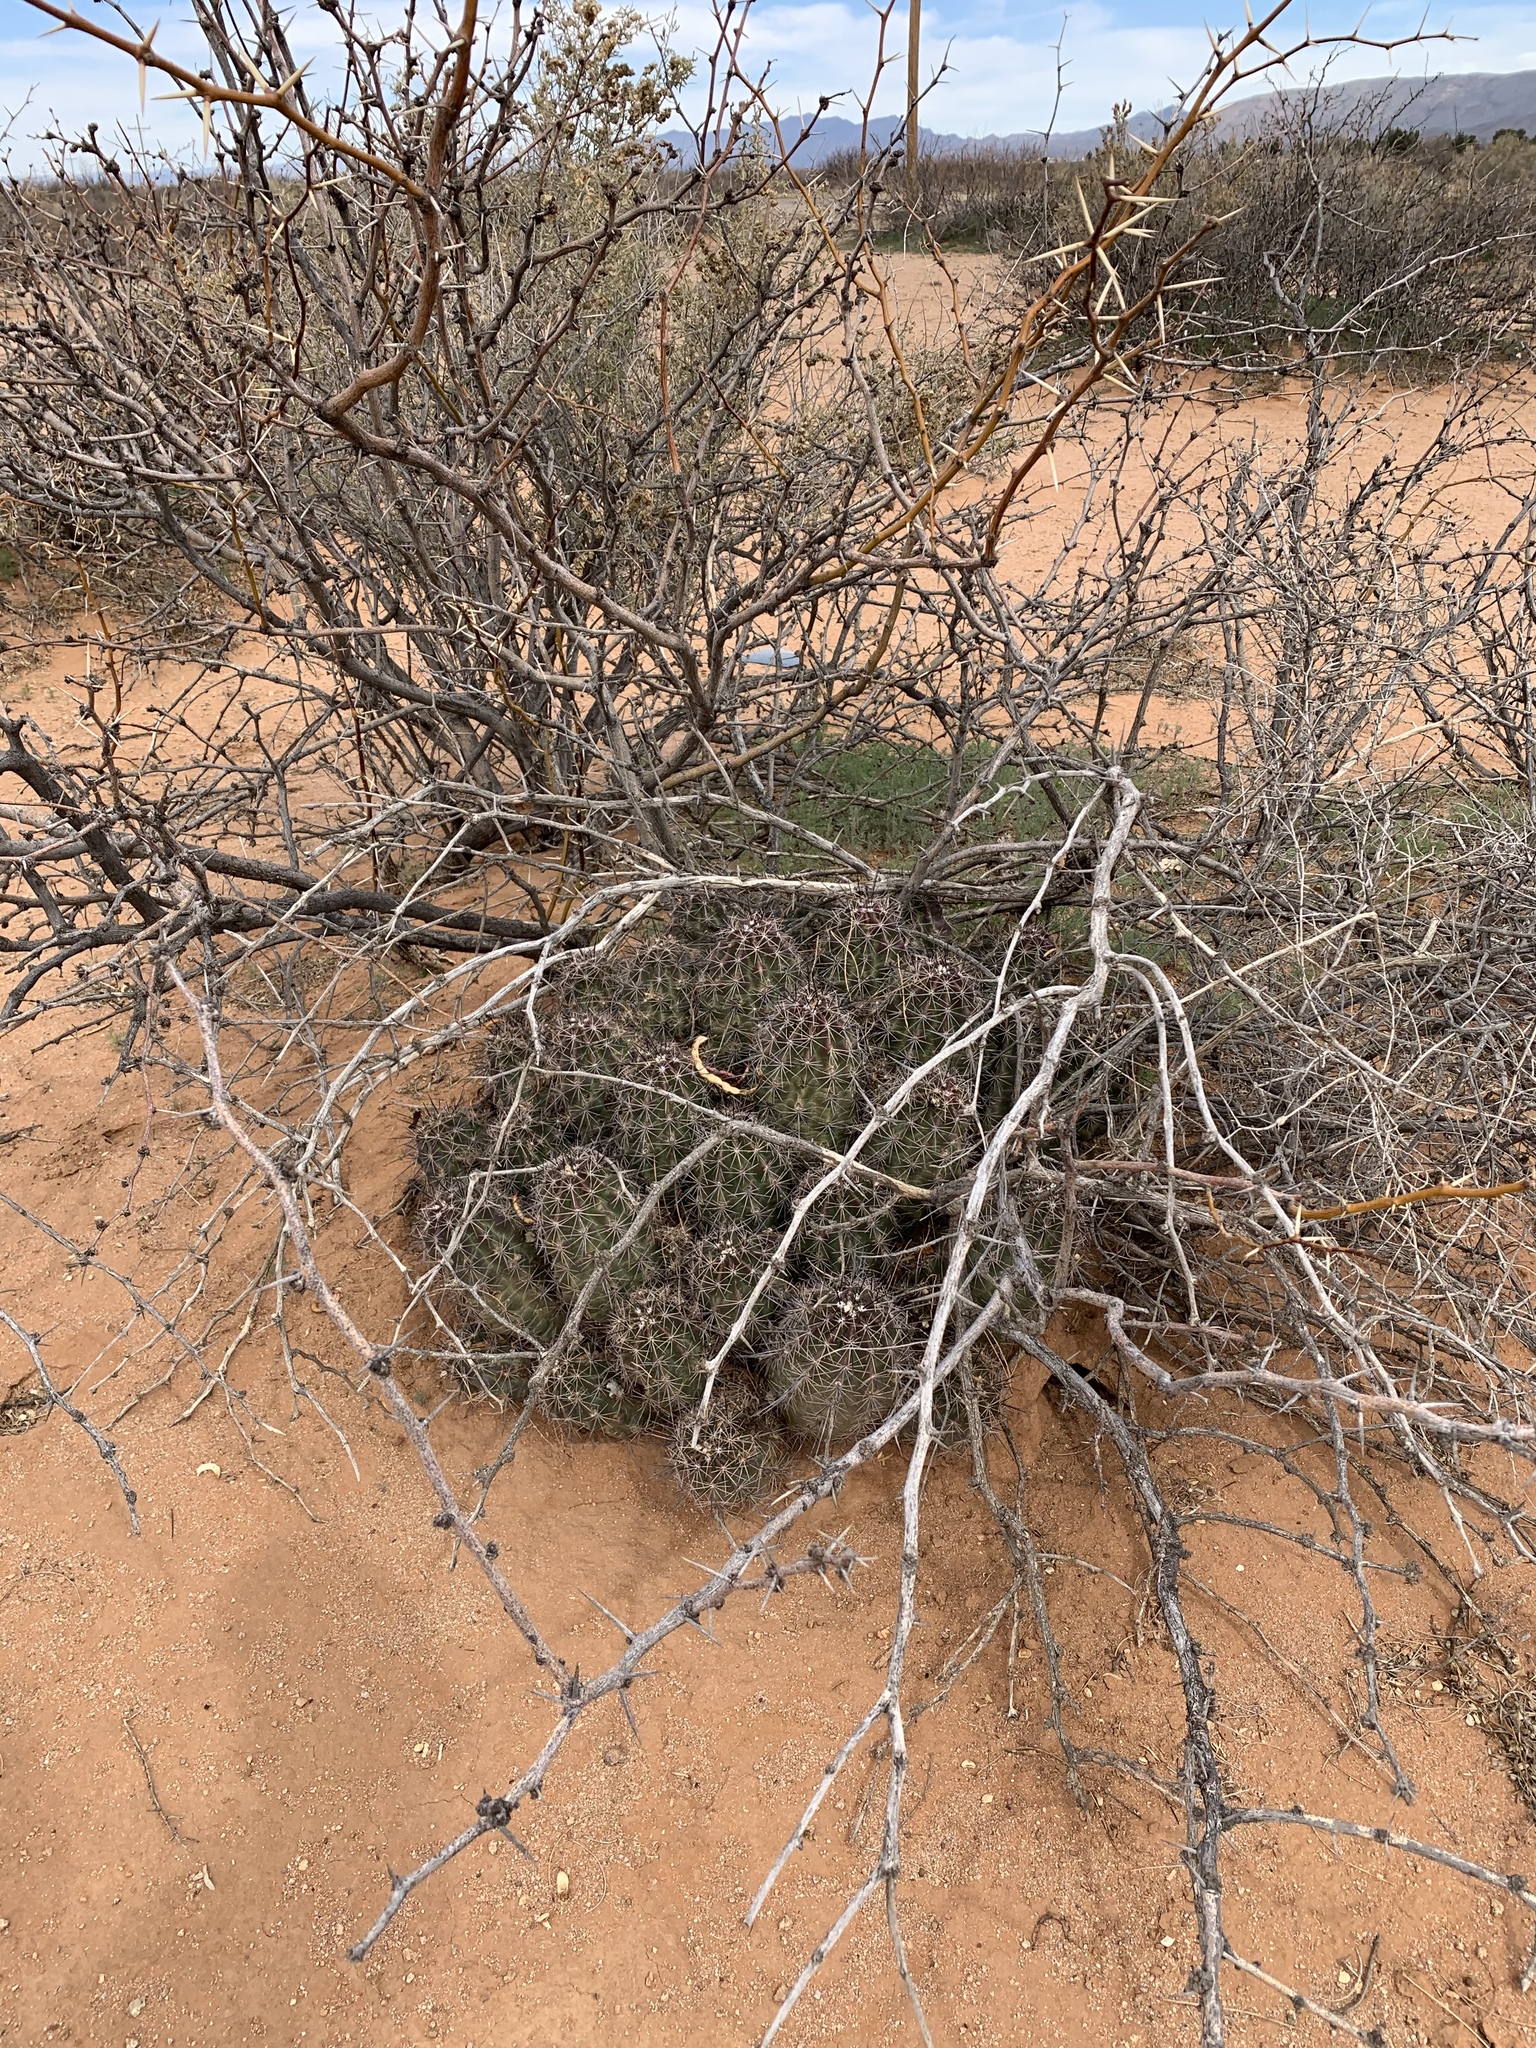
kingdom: Plantae
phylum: Tracheophyta
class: Magnoliopsida
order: Caryophyllales
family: Cactaceae
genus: Echinocereus
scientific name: Echinocereus coccineus
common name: Scarlet hedgehog cactus
